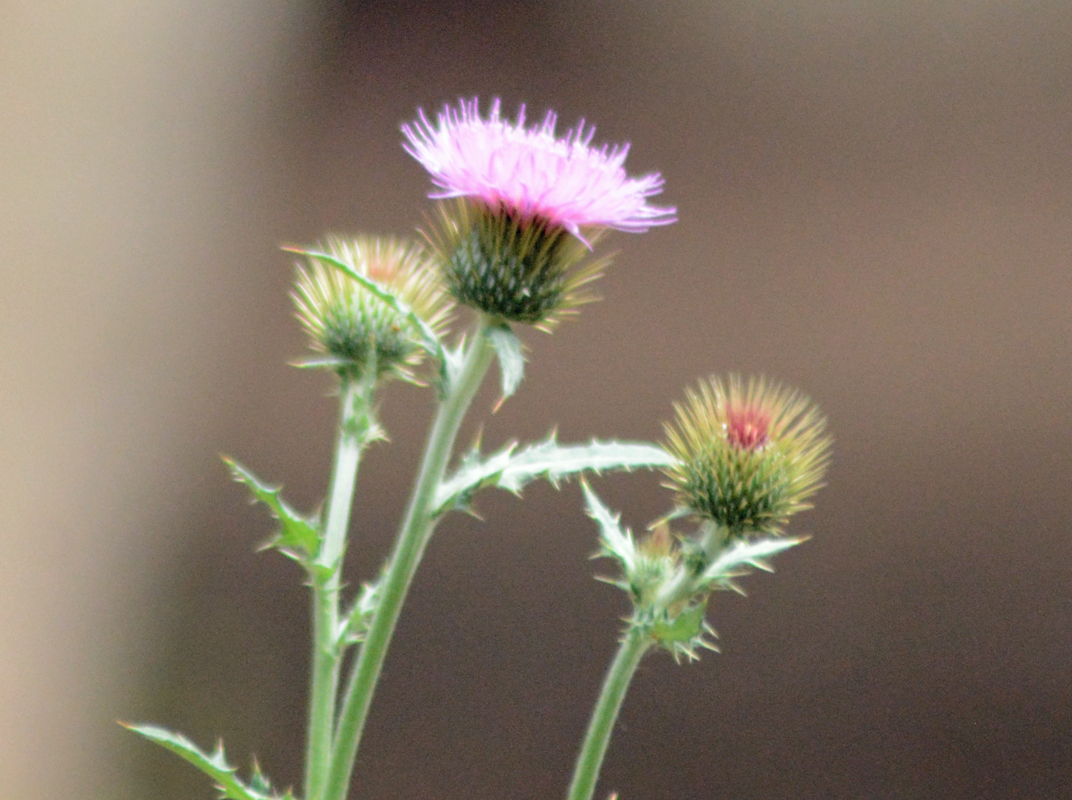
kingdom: Plantae
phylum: Tracheophyta
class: Magnoliopsida
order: Asterales
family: Asteraceae
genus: Cirsium
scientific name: Cirsium rhaphilepis
